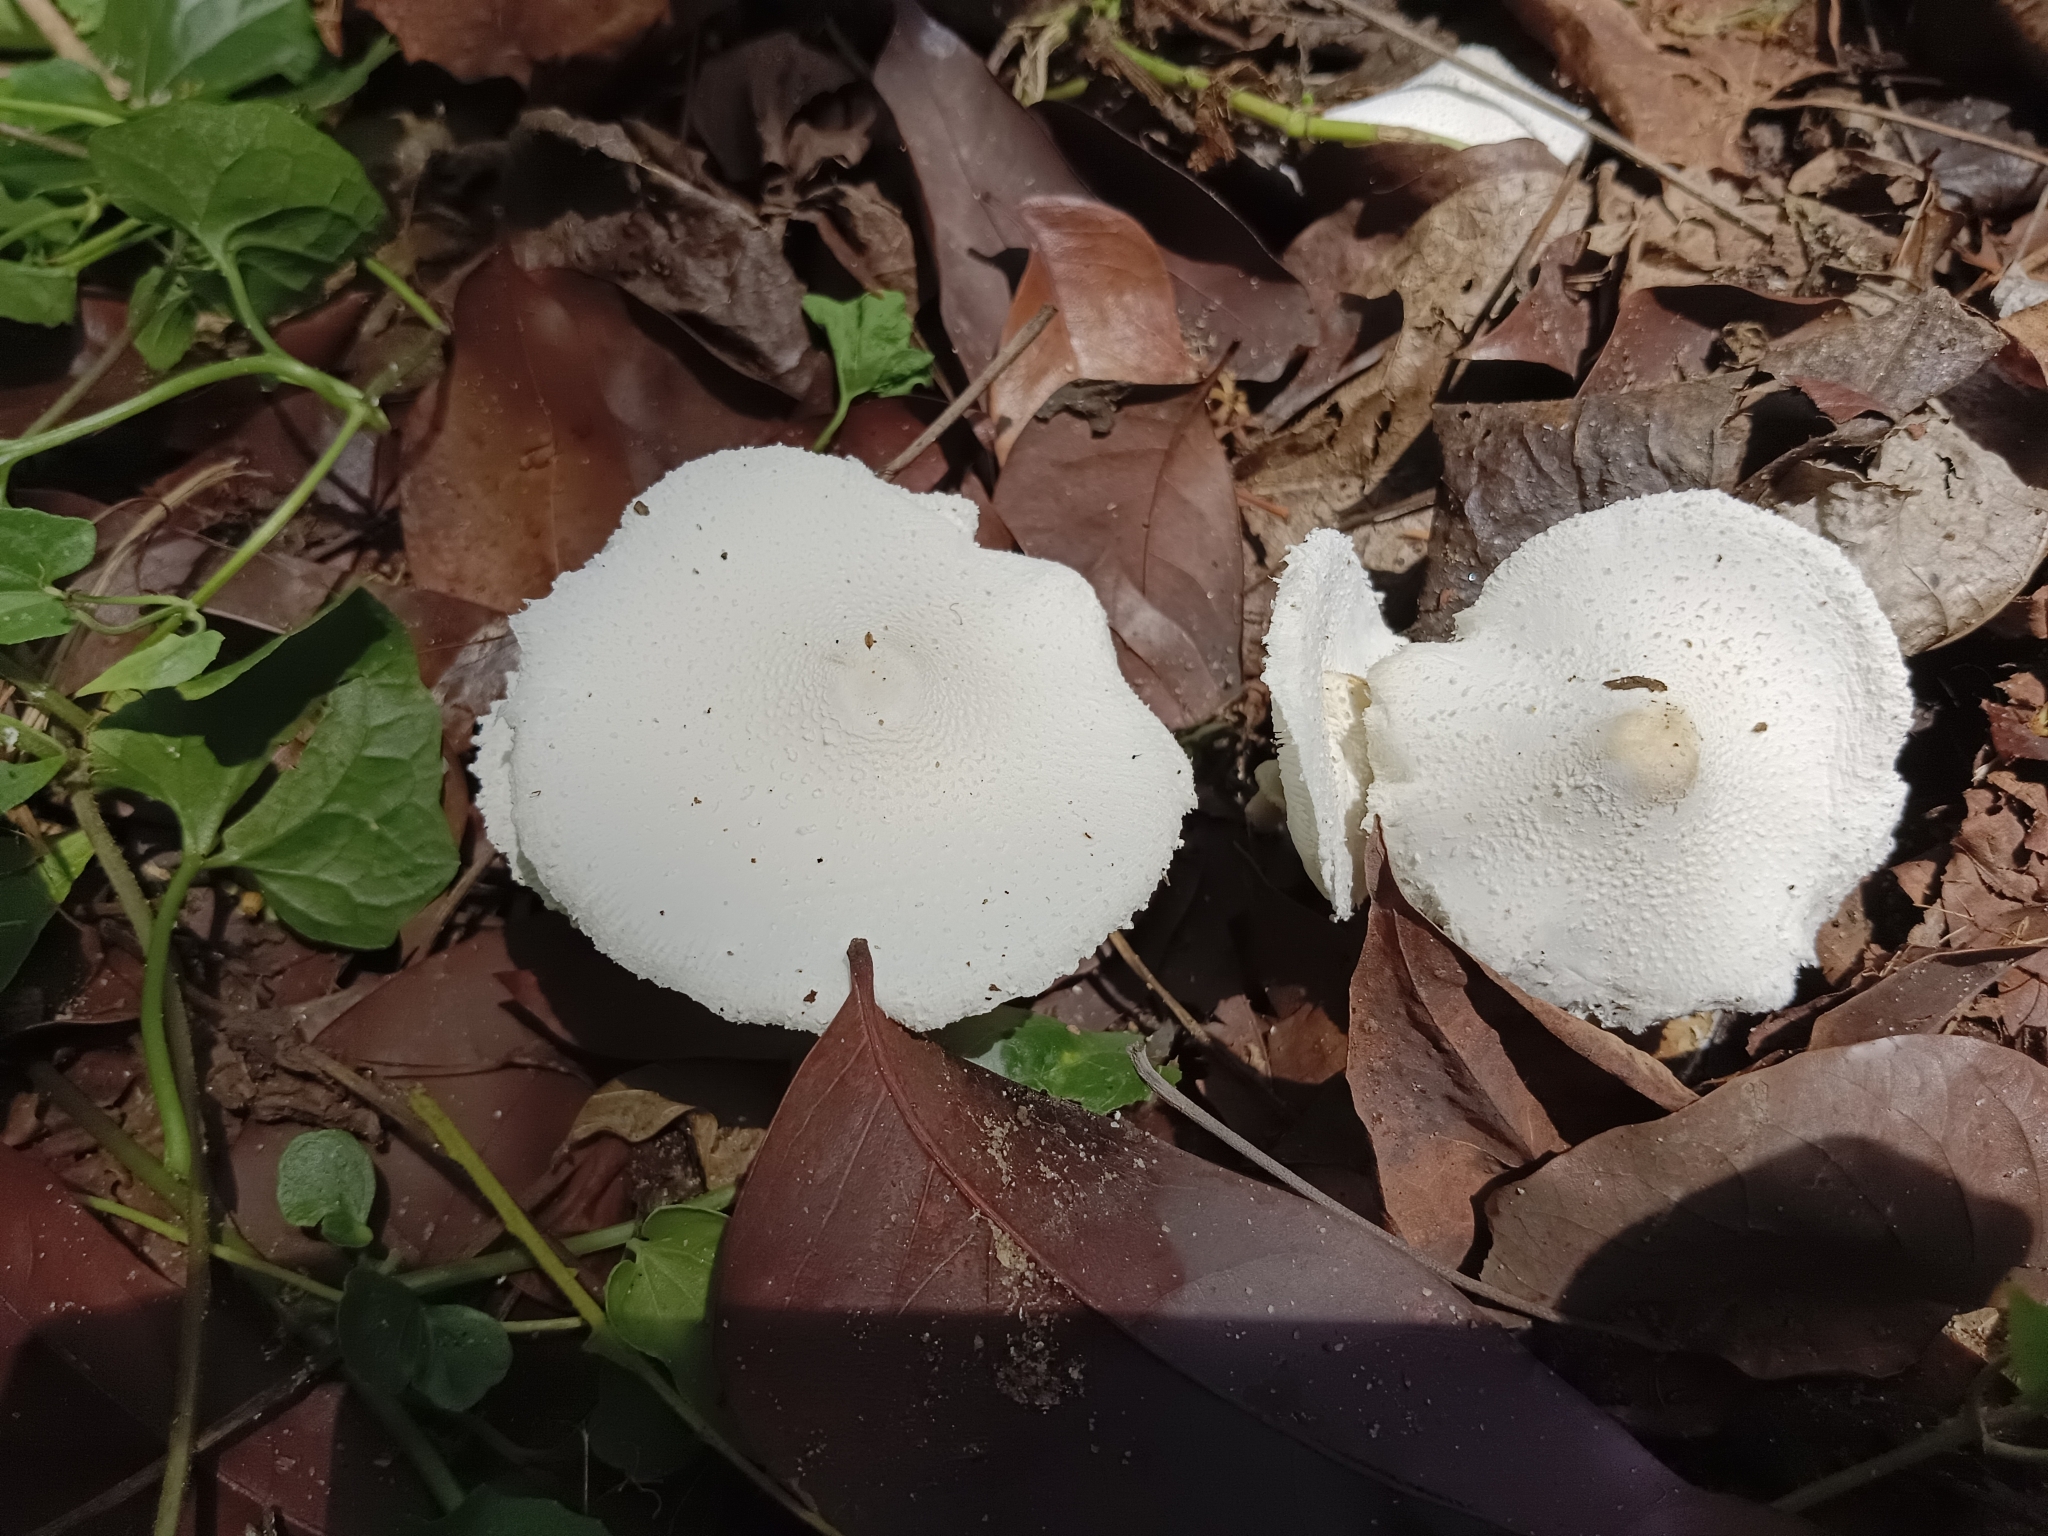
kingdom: Fungi
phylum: Basidiomycota
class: Agaricomycetes
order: Agaricales
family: Agaricaceae
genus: Leucocoprinus
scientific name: Leucocoprinus cretaceus
